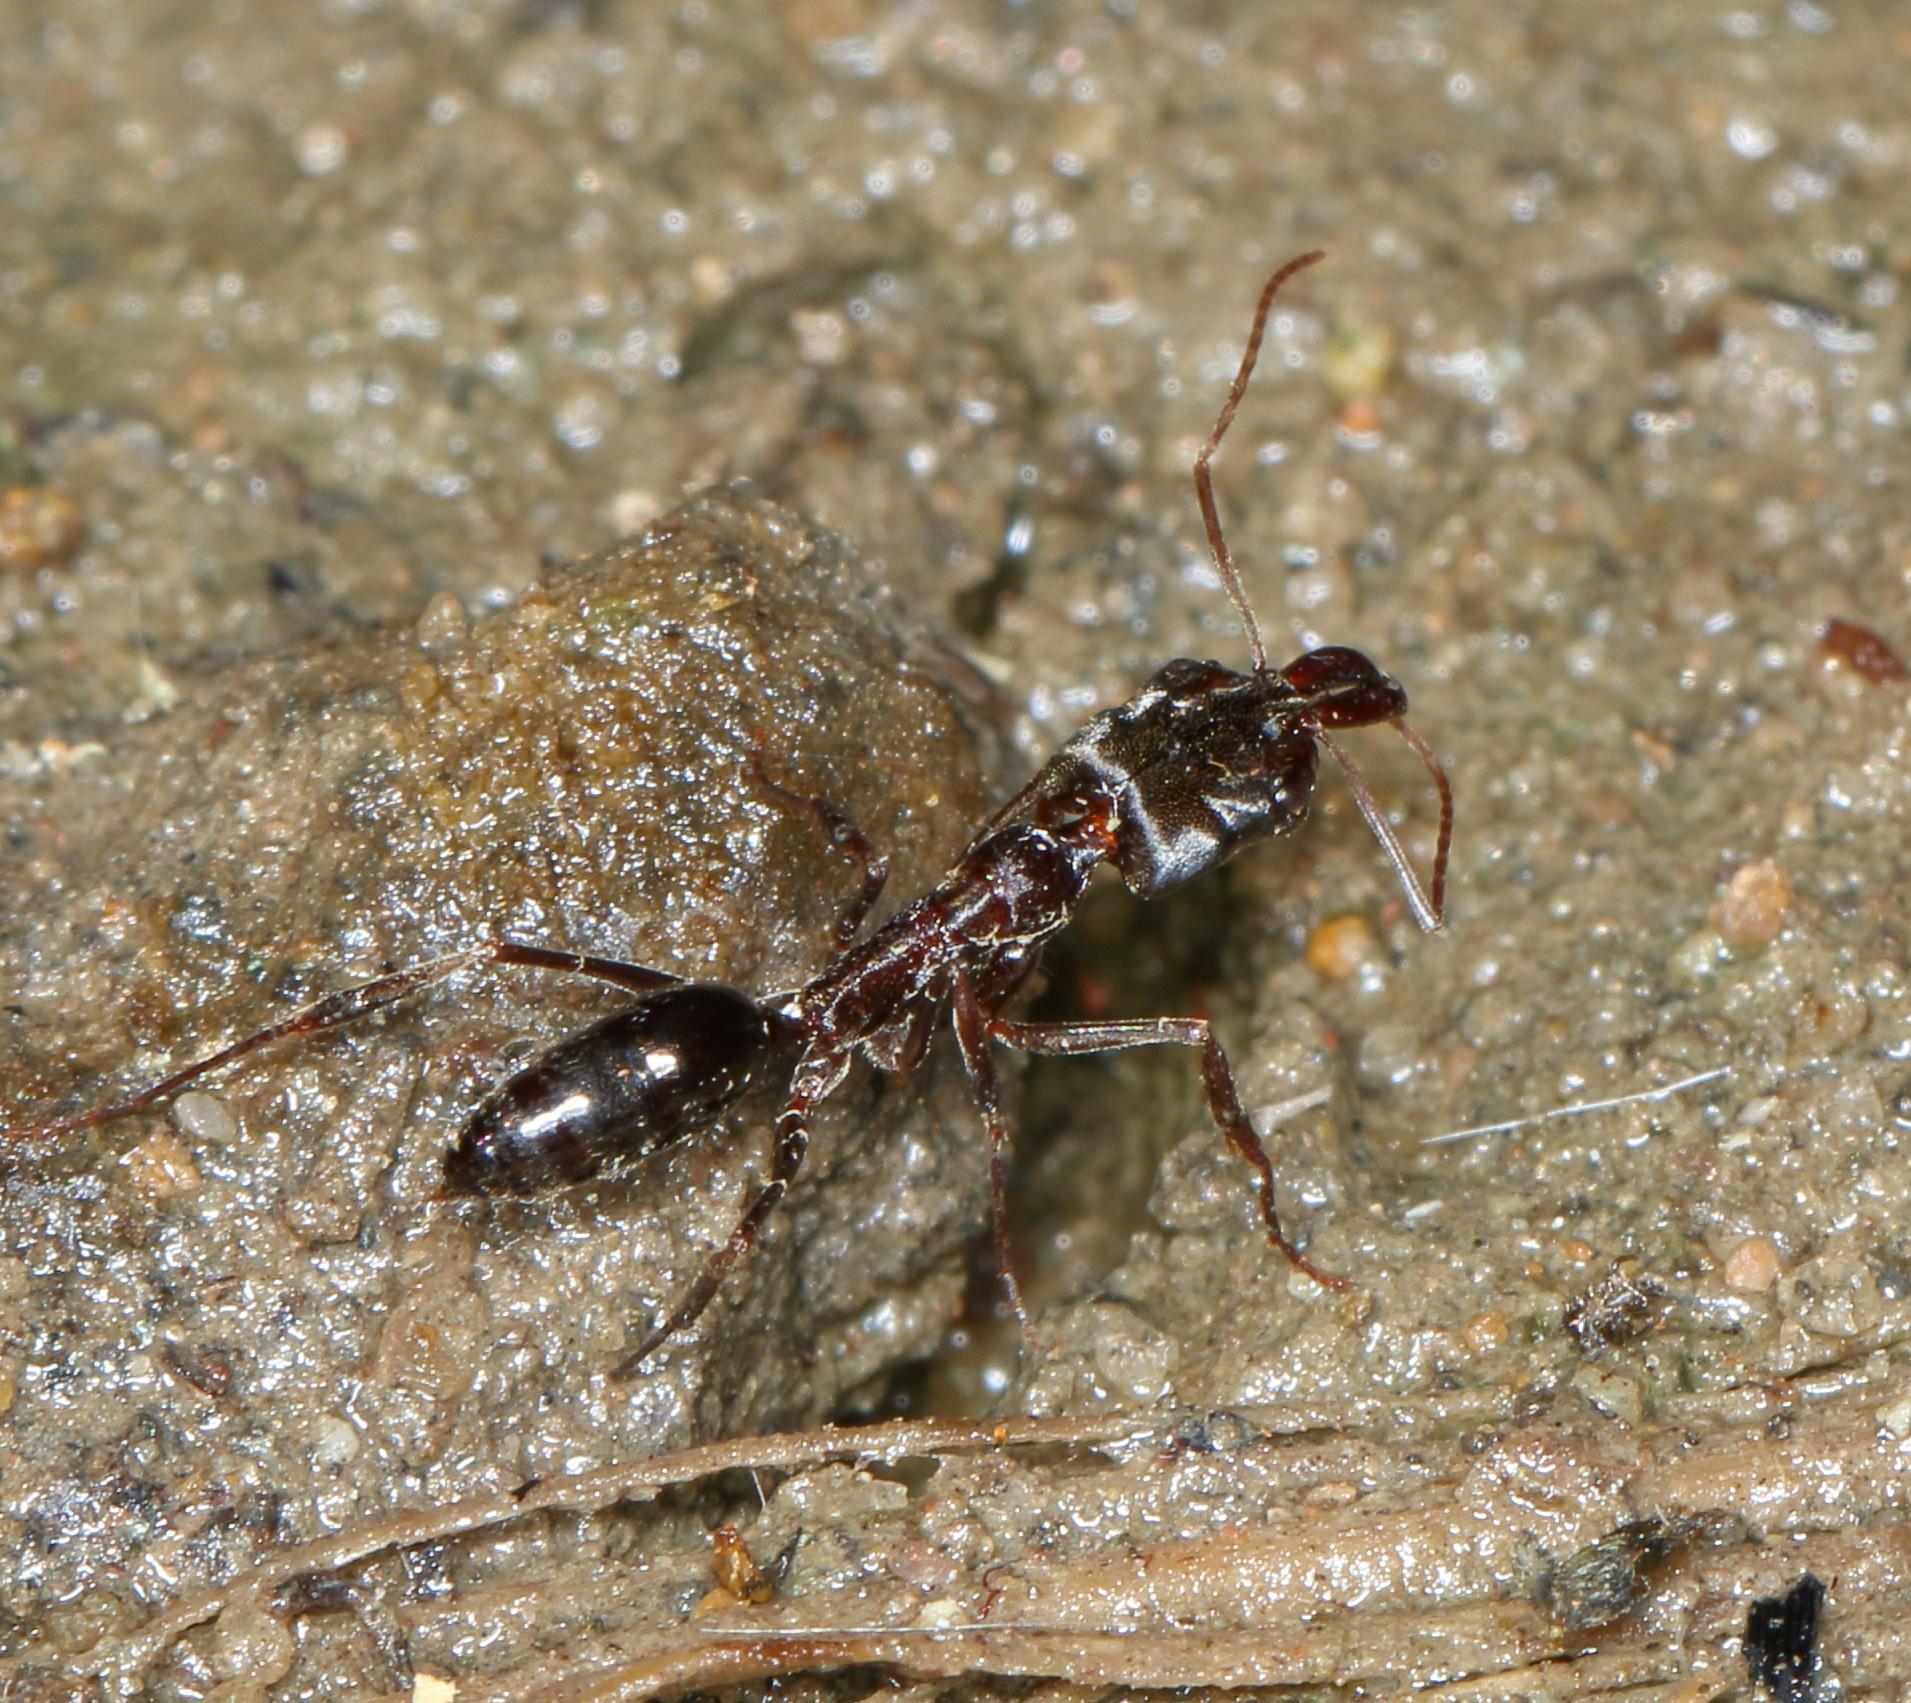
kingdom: Animalia
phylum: Arthropoda
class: Insecta
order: Hymenoptera
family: Formicidae
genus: Odontomachus
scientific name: Odontomachus troglodytes
